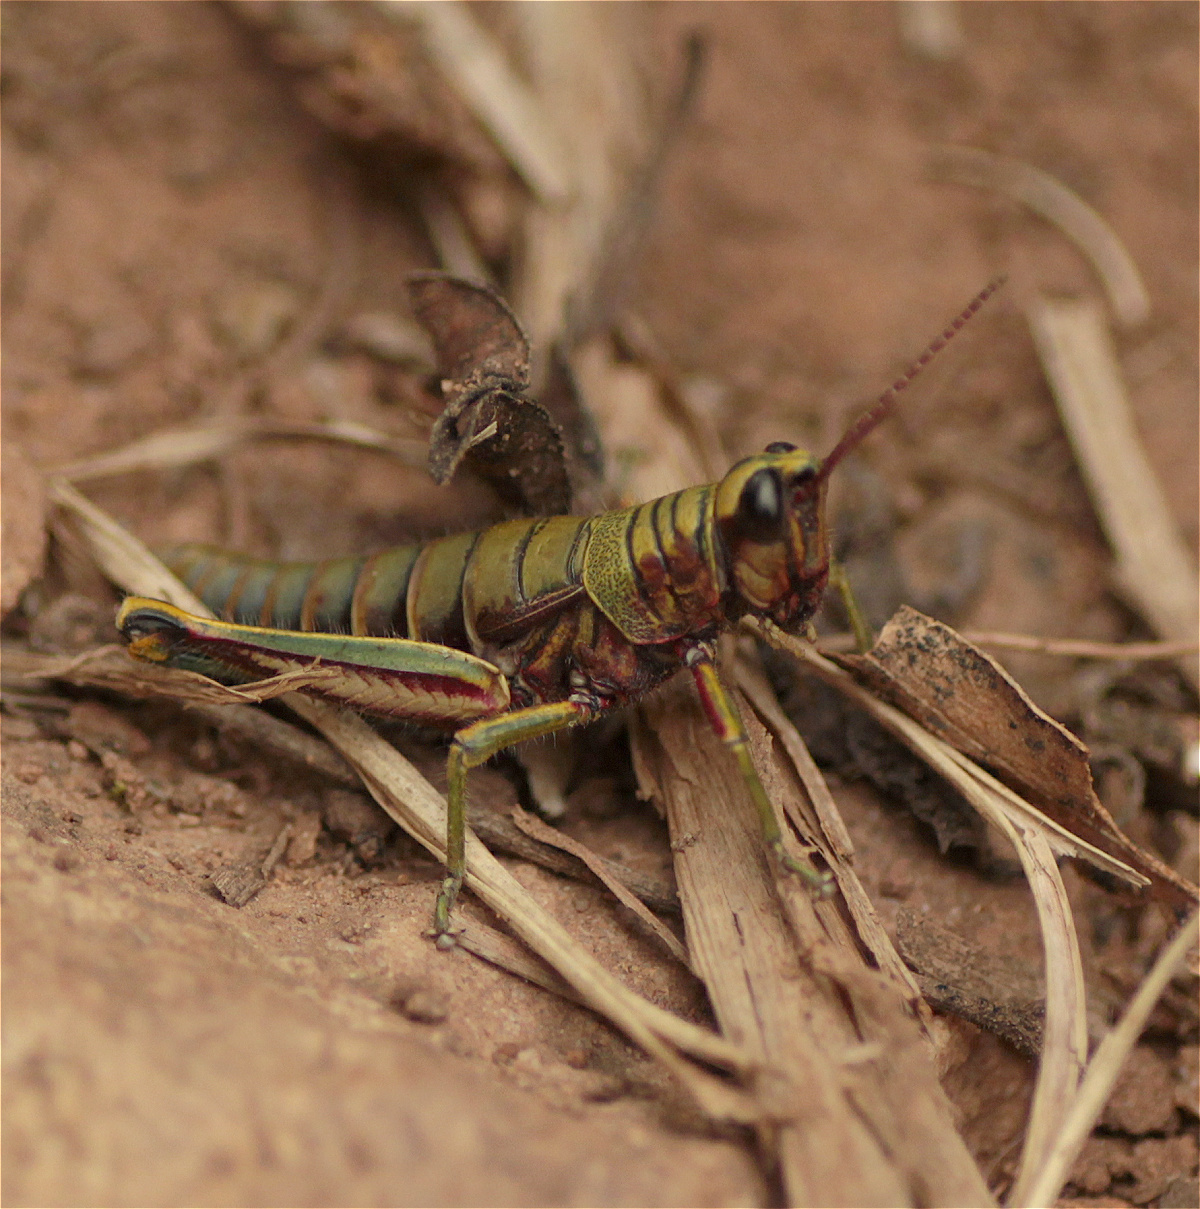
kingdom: Animalia
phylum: Arthropoda
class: Insecta
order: Orthoptera
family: Acrididae
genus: Agesander
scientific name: Agesander ruficornis
